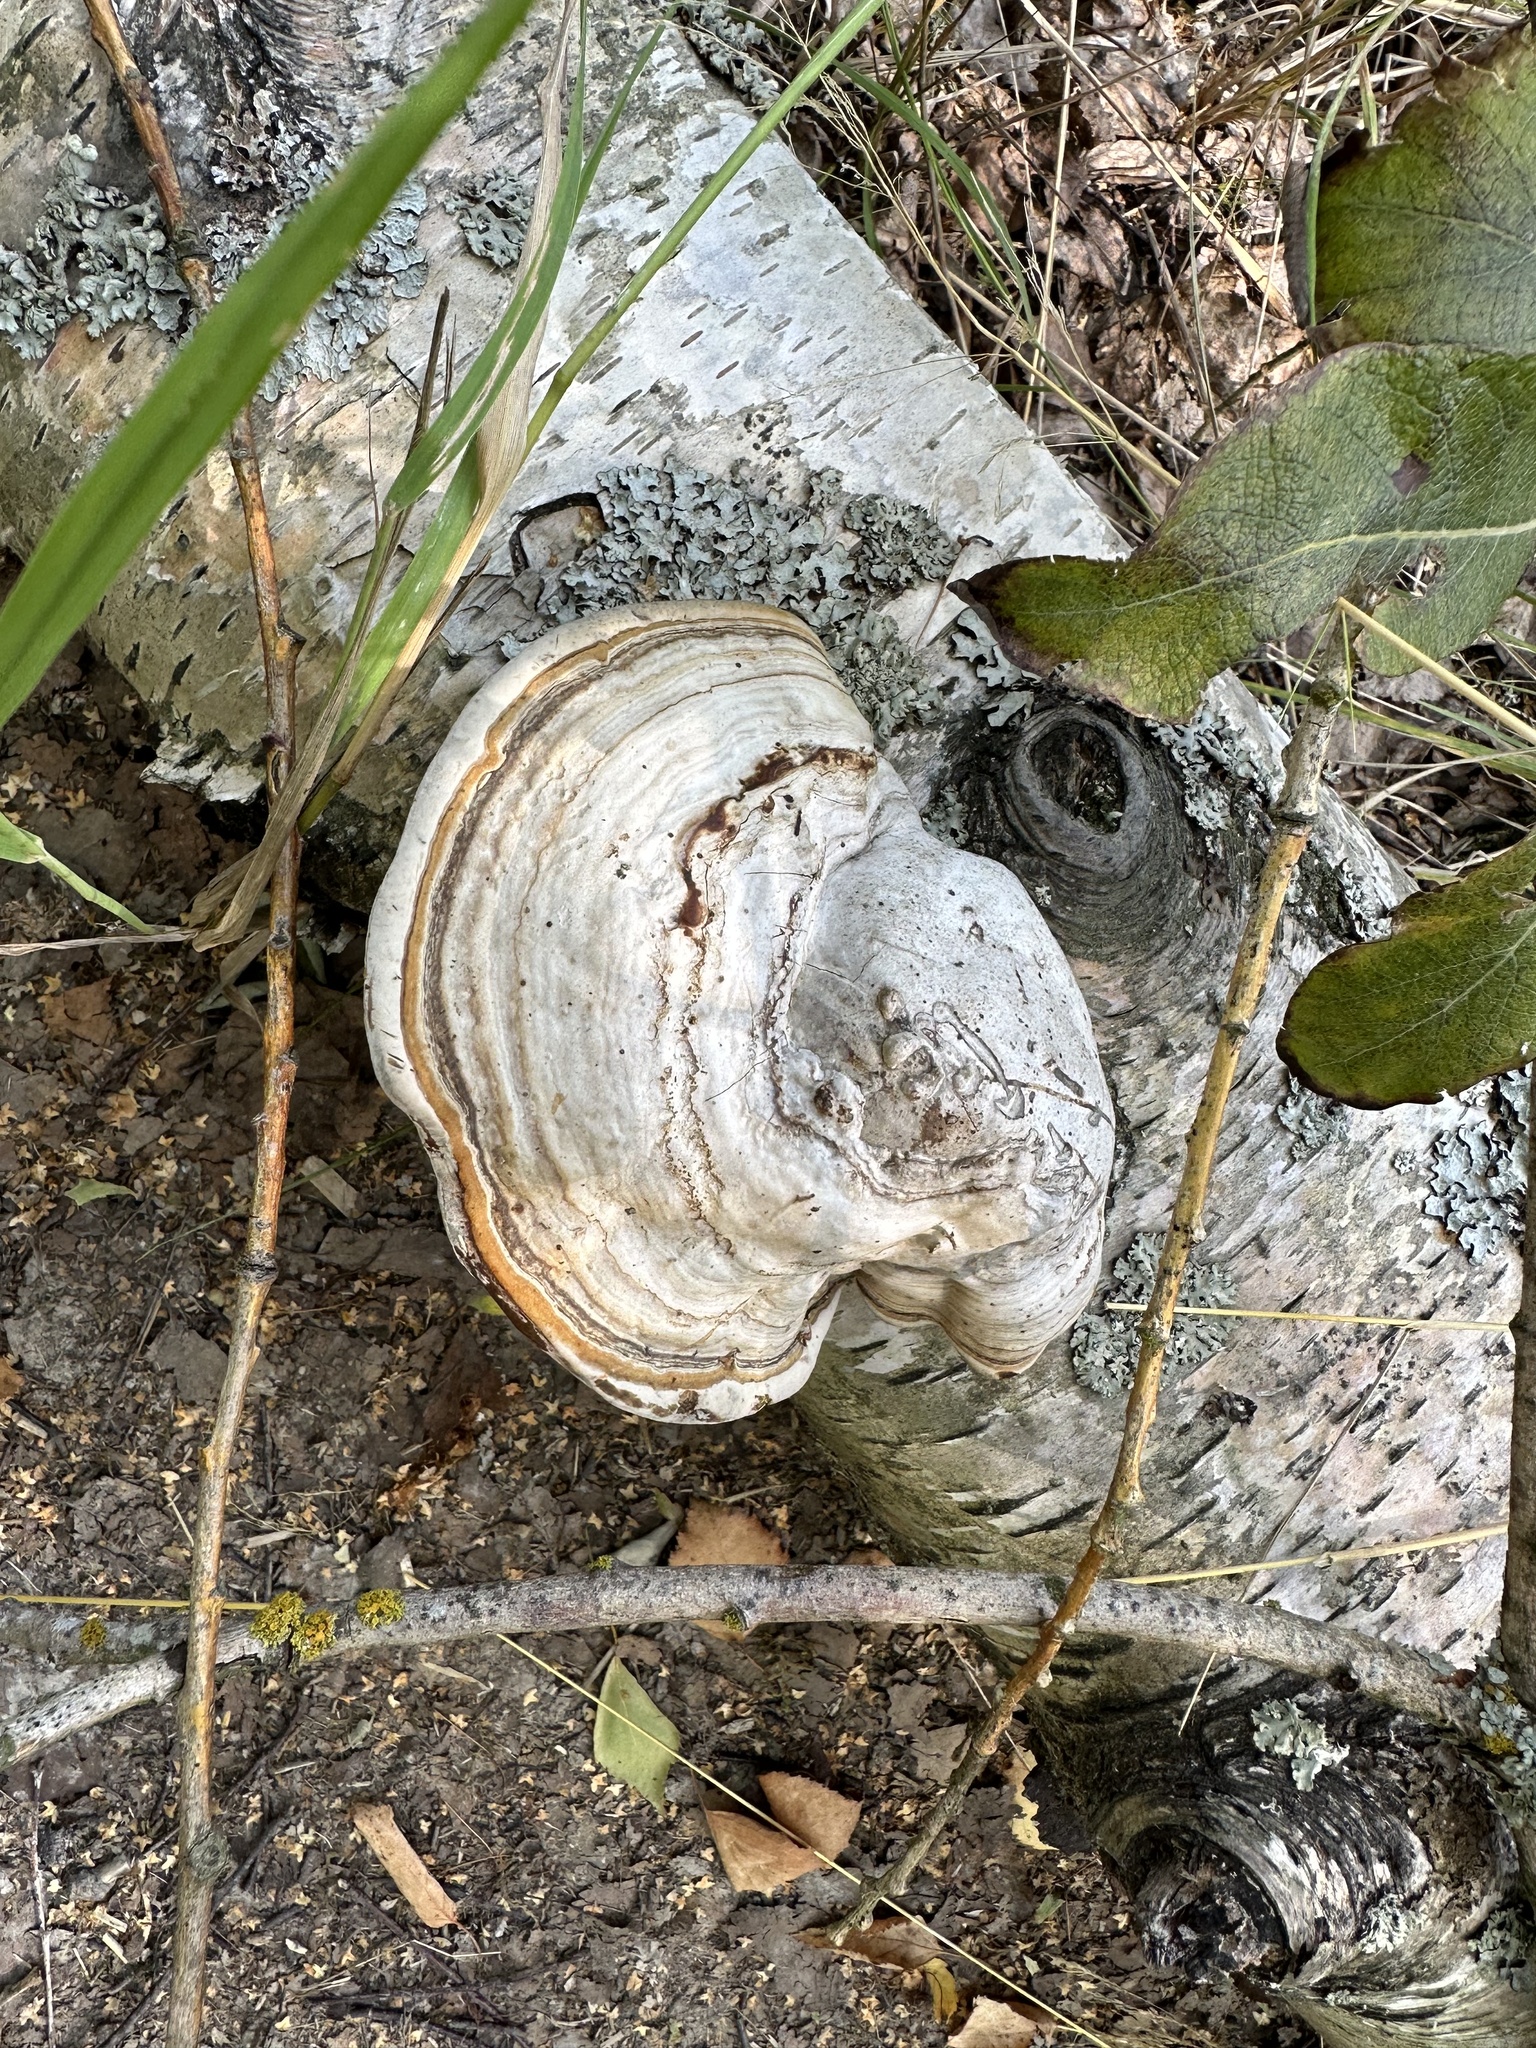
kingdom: Fungi
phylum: Basidiomycota
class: Agaricomycetes
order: Polyporales
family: Polyporaceae
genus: Fomes
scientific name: Fomes fomentarius
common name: Hoof fungus
